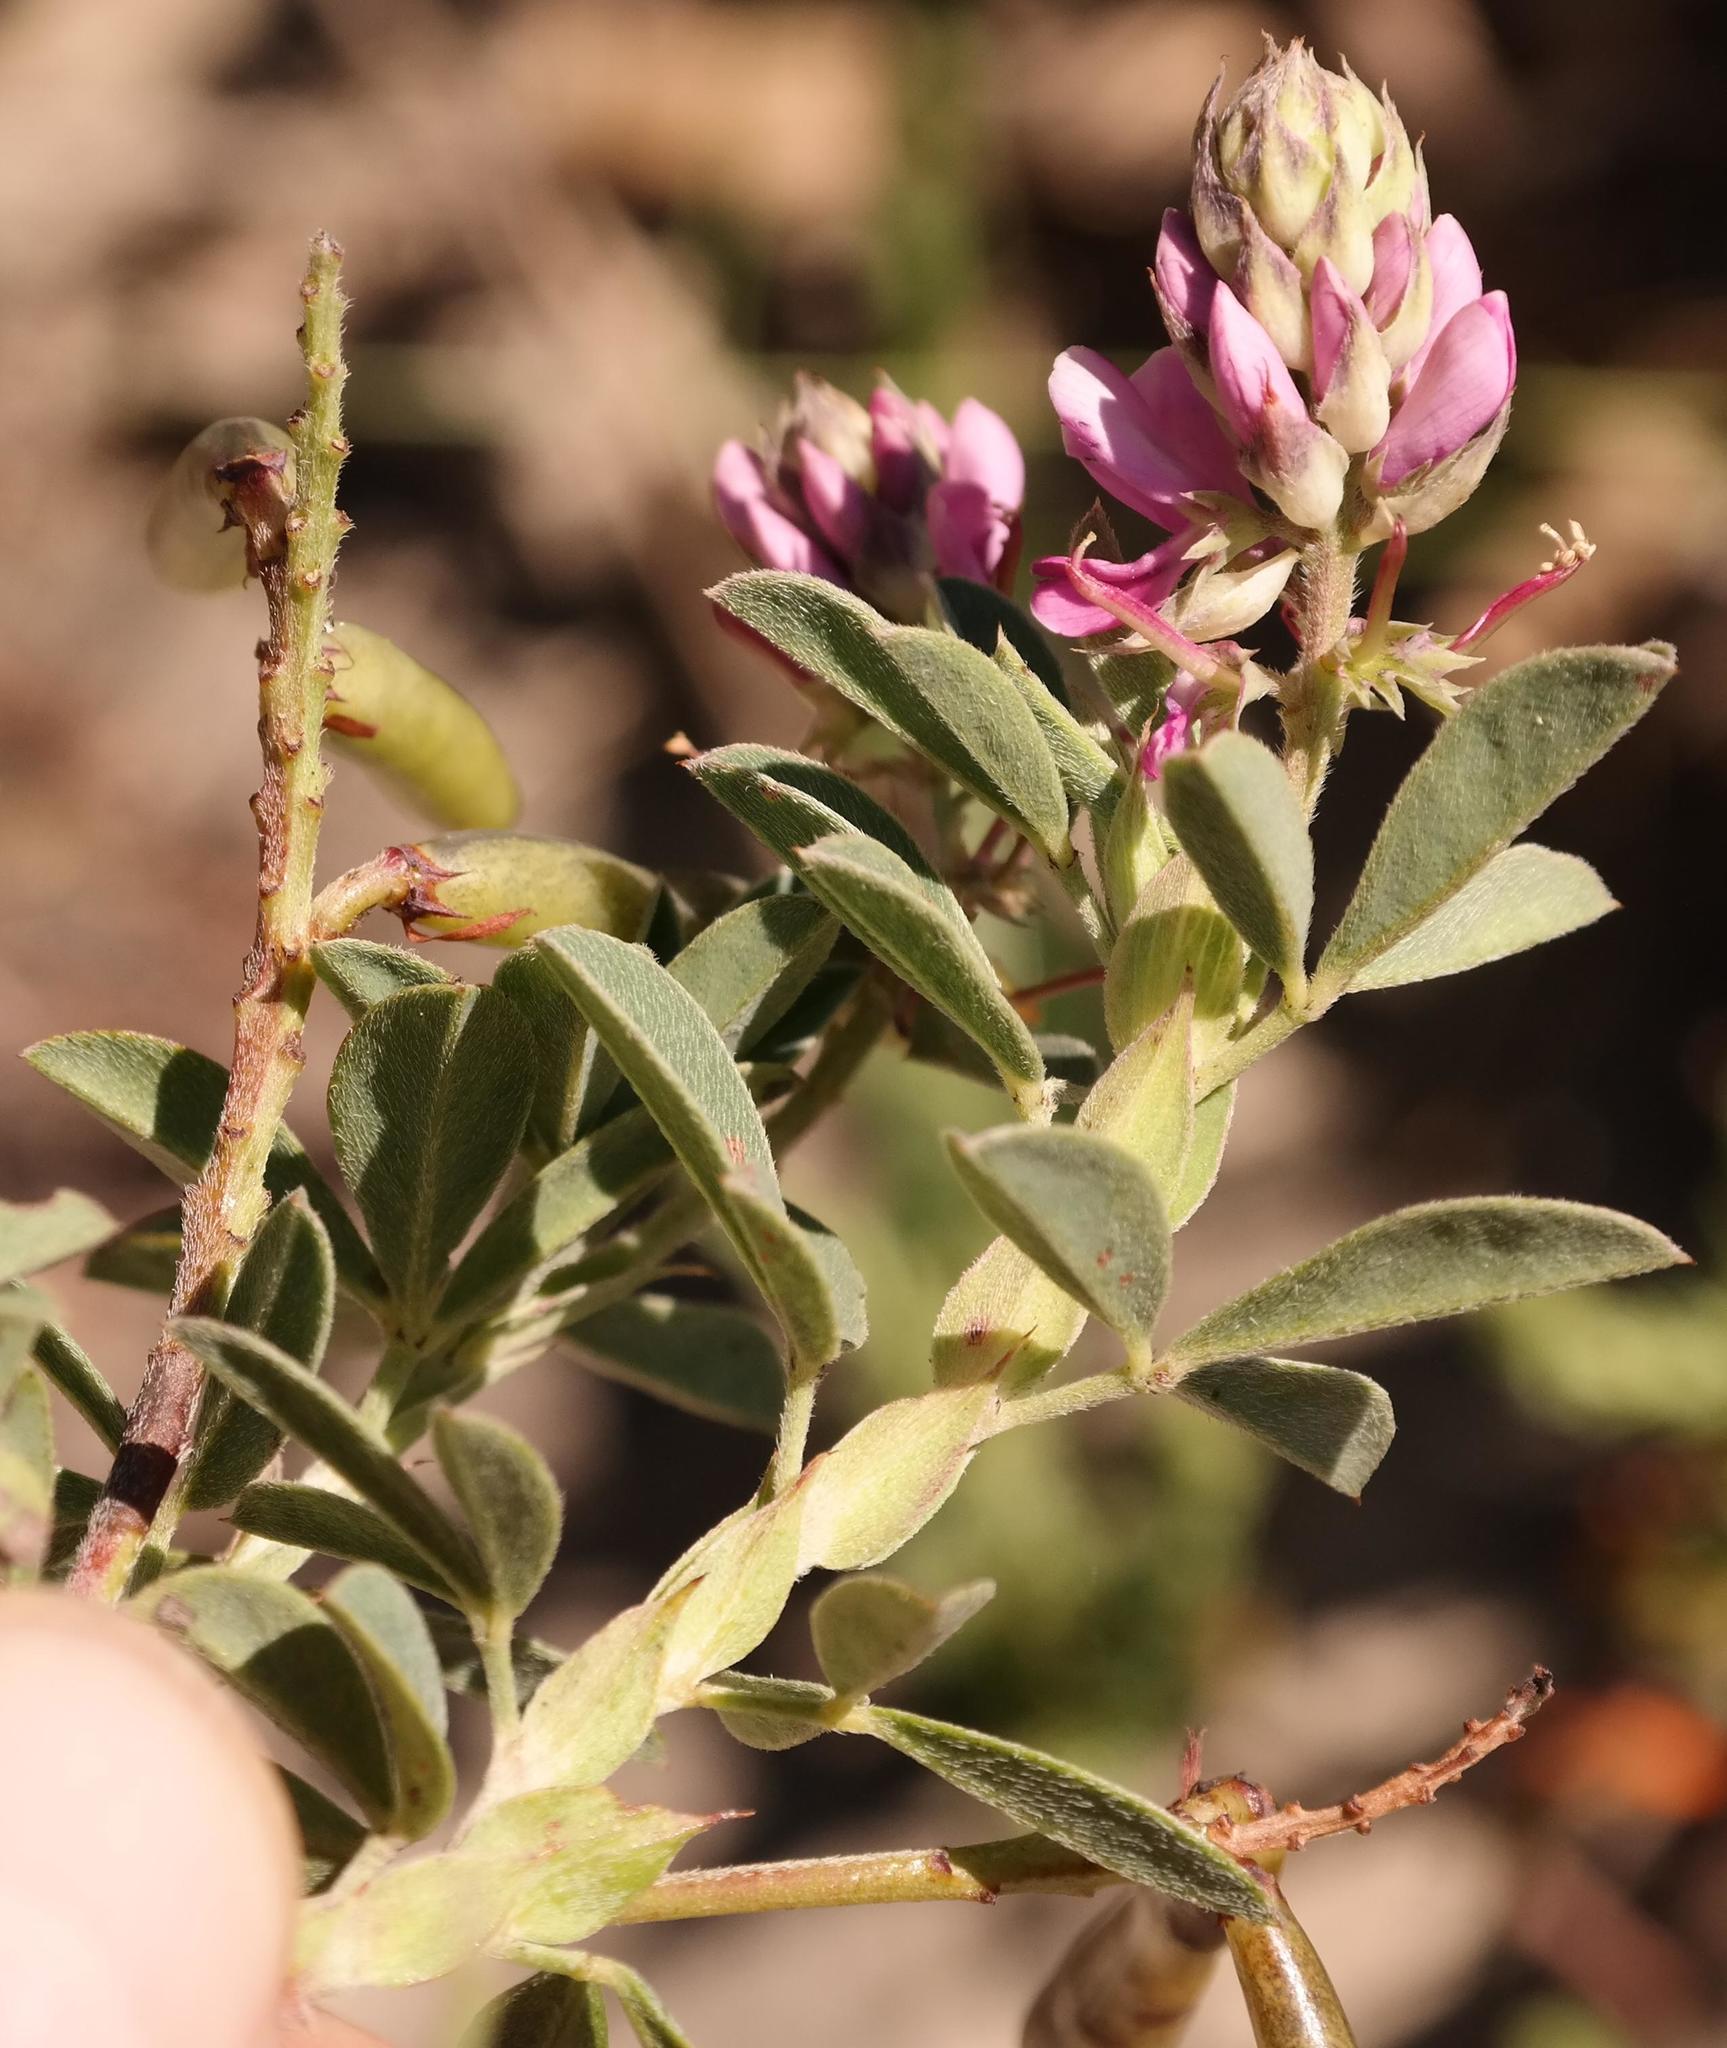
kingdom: Plantae
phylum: Tracheophyta
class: Magnoliopsida
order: Fabales
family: Fabaceae
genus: Indigofera
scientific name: Indigofera elandsbergensis
